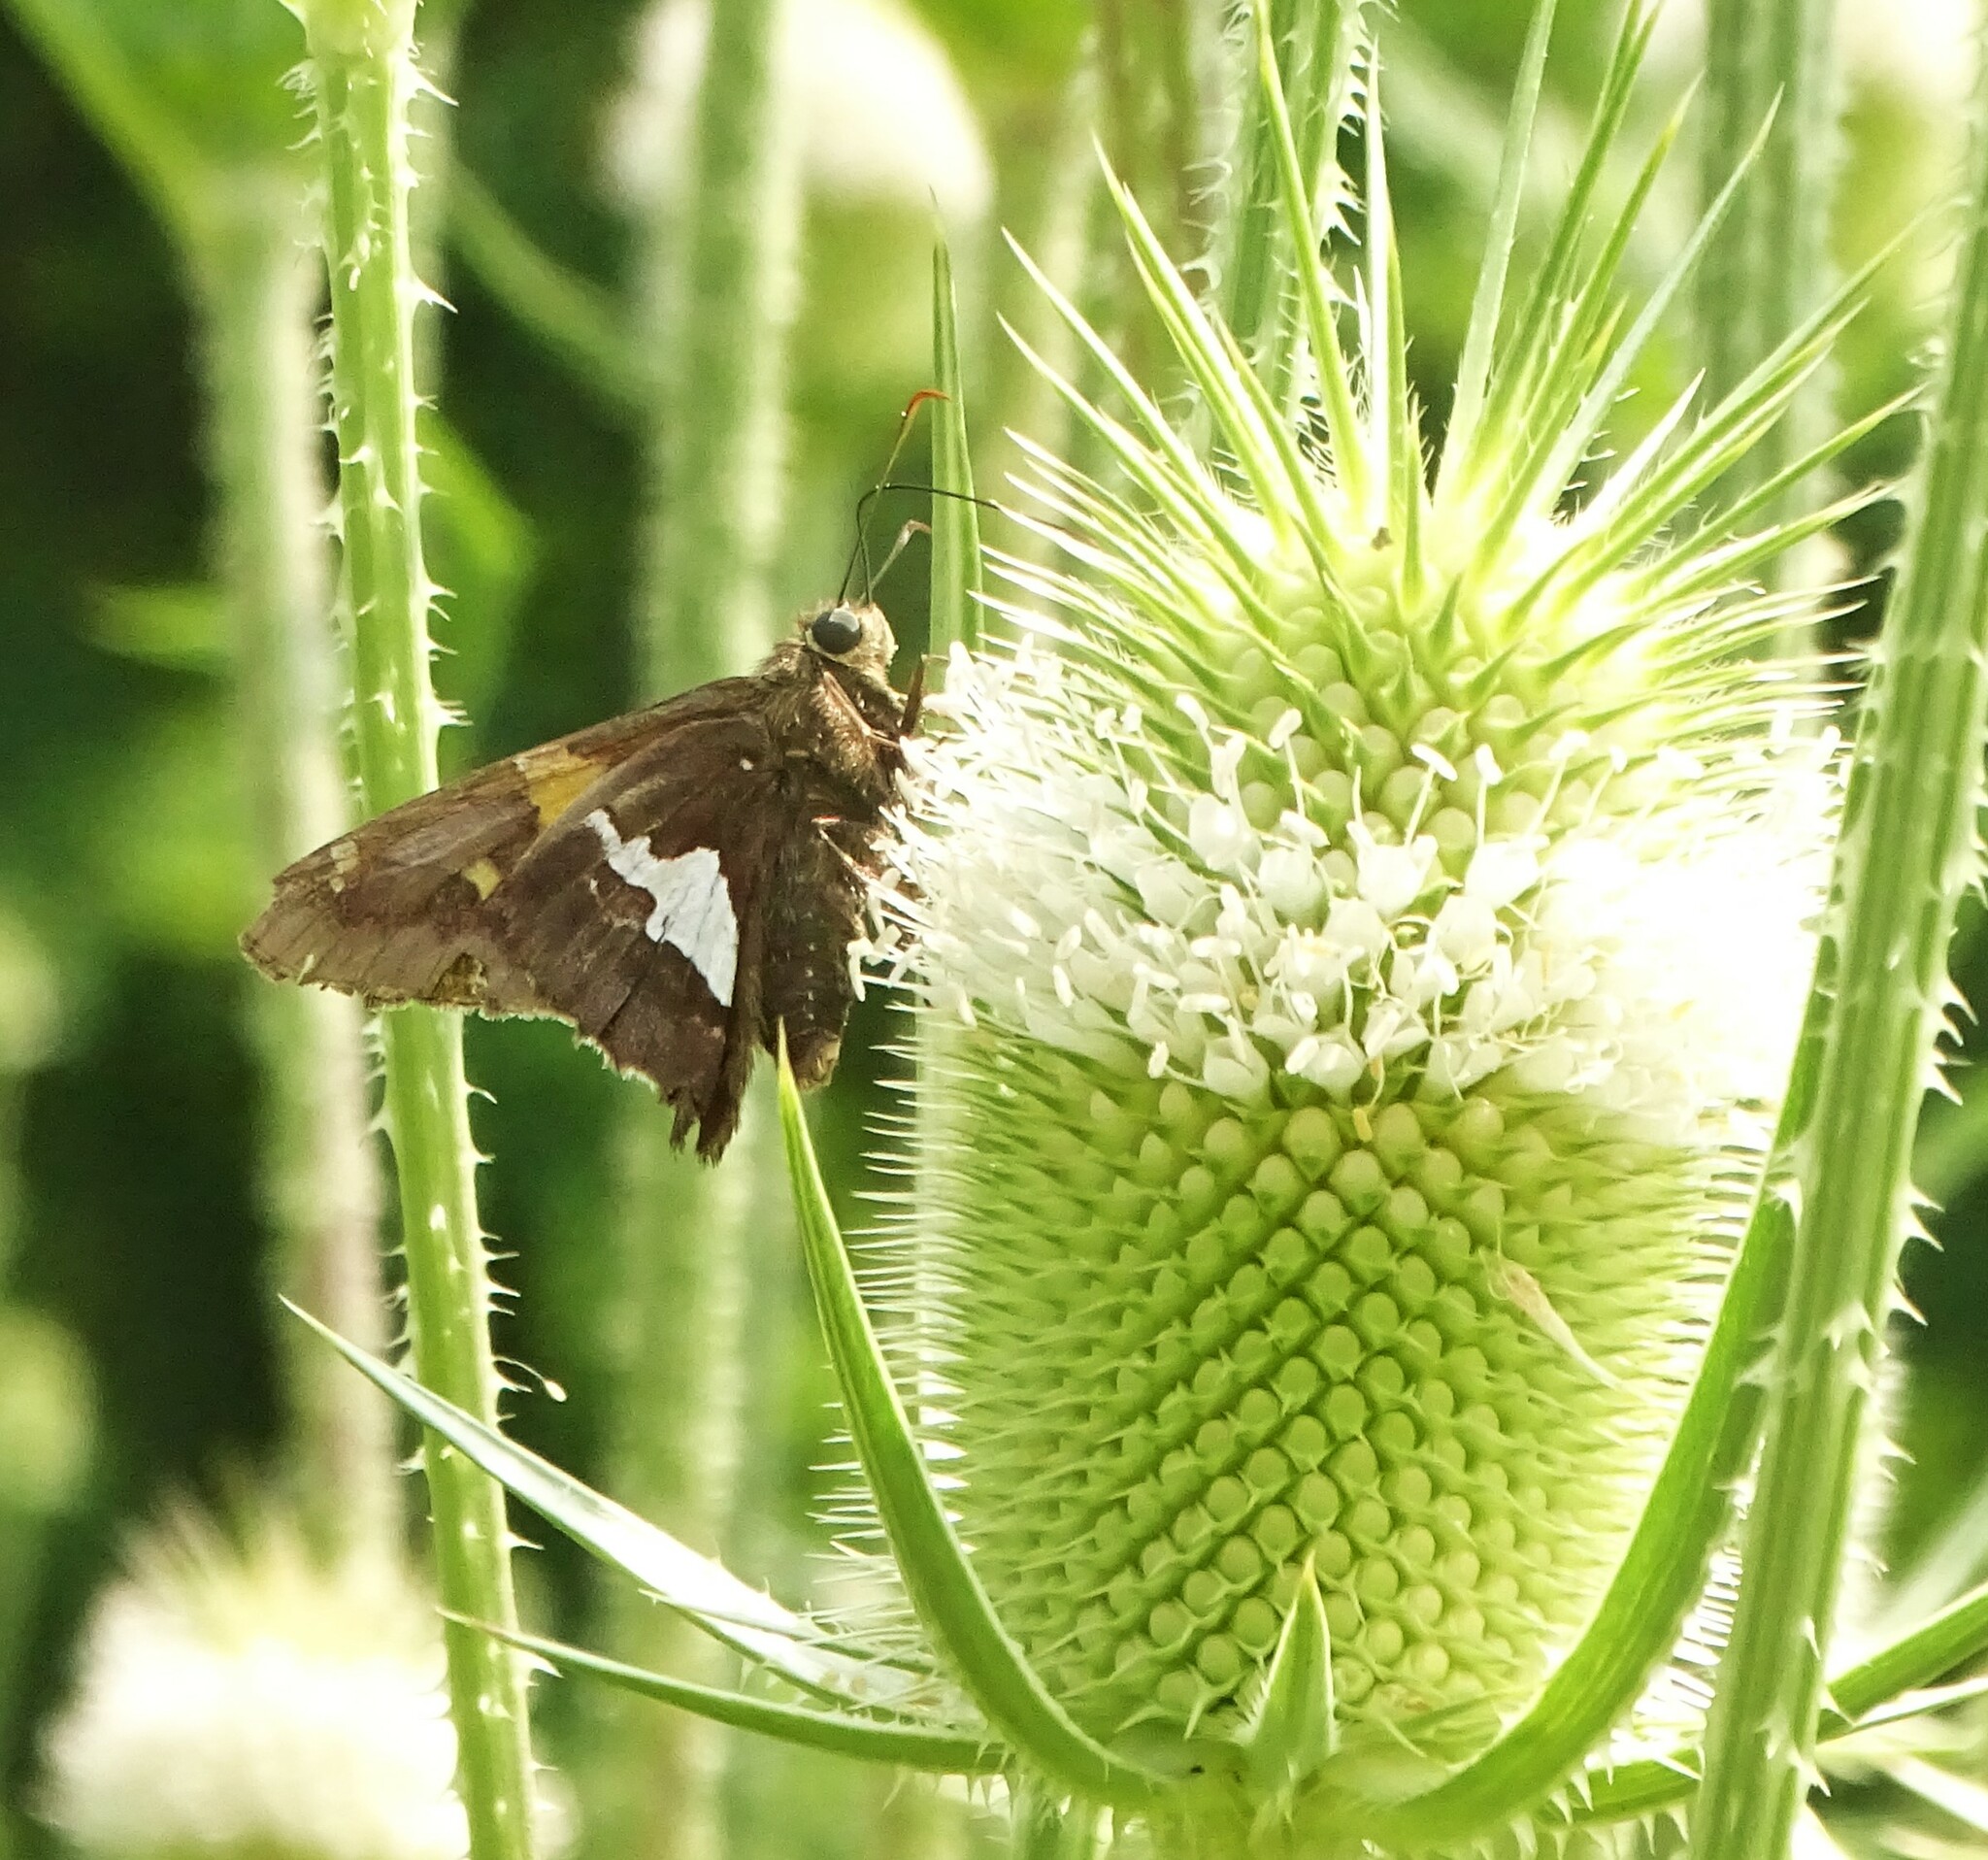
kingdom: Animalia
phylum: Arthropoda
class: Insecta
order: Lepidoptera
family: Hesperiidae
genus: Epargyreus
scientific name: Epargyreus clarus
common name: Silver-spotted skipper
